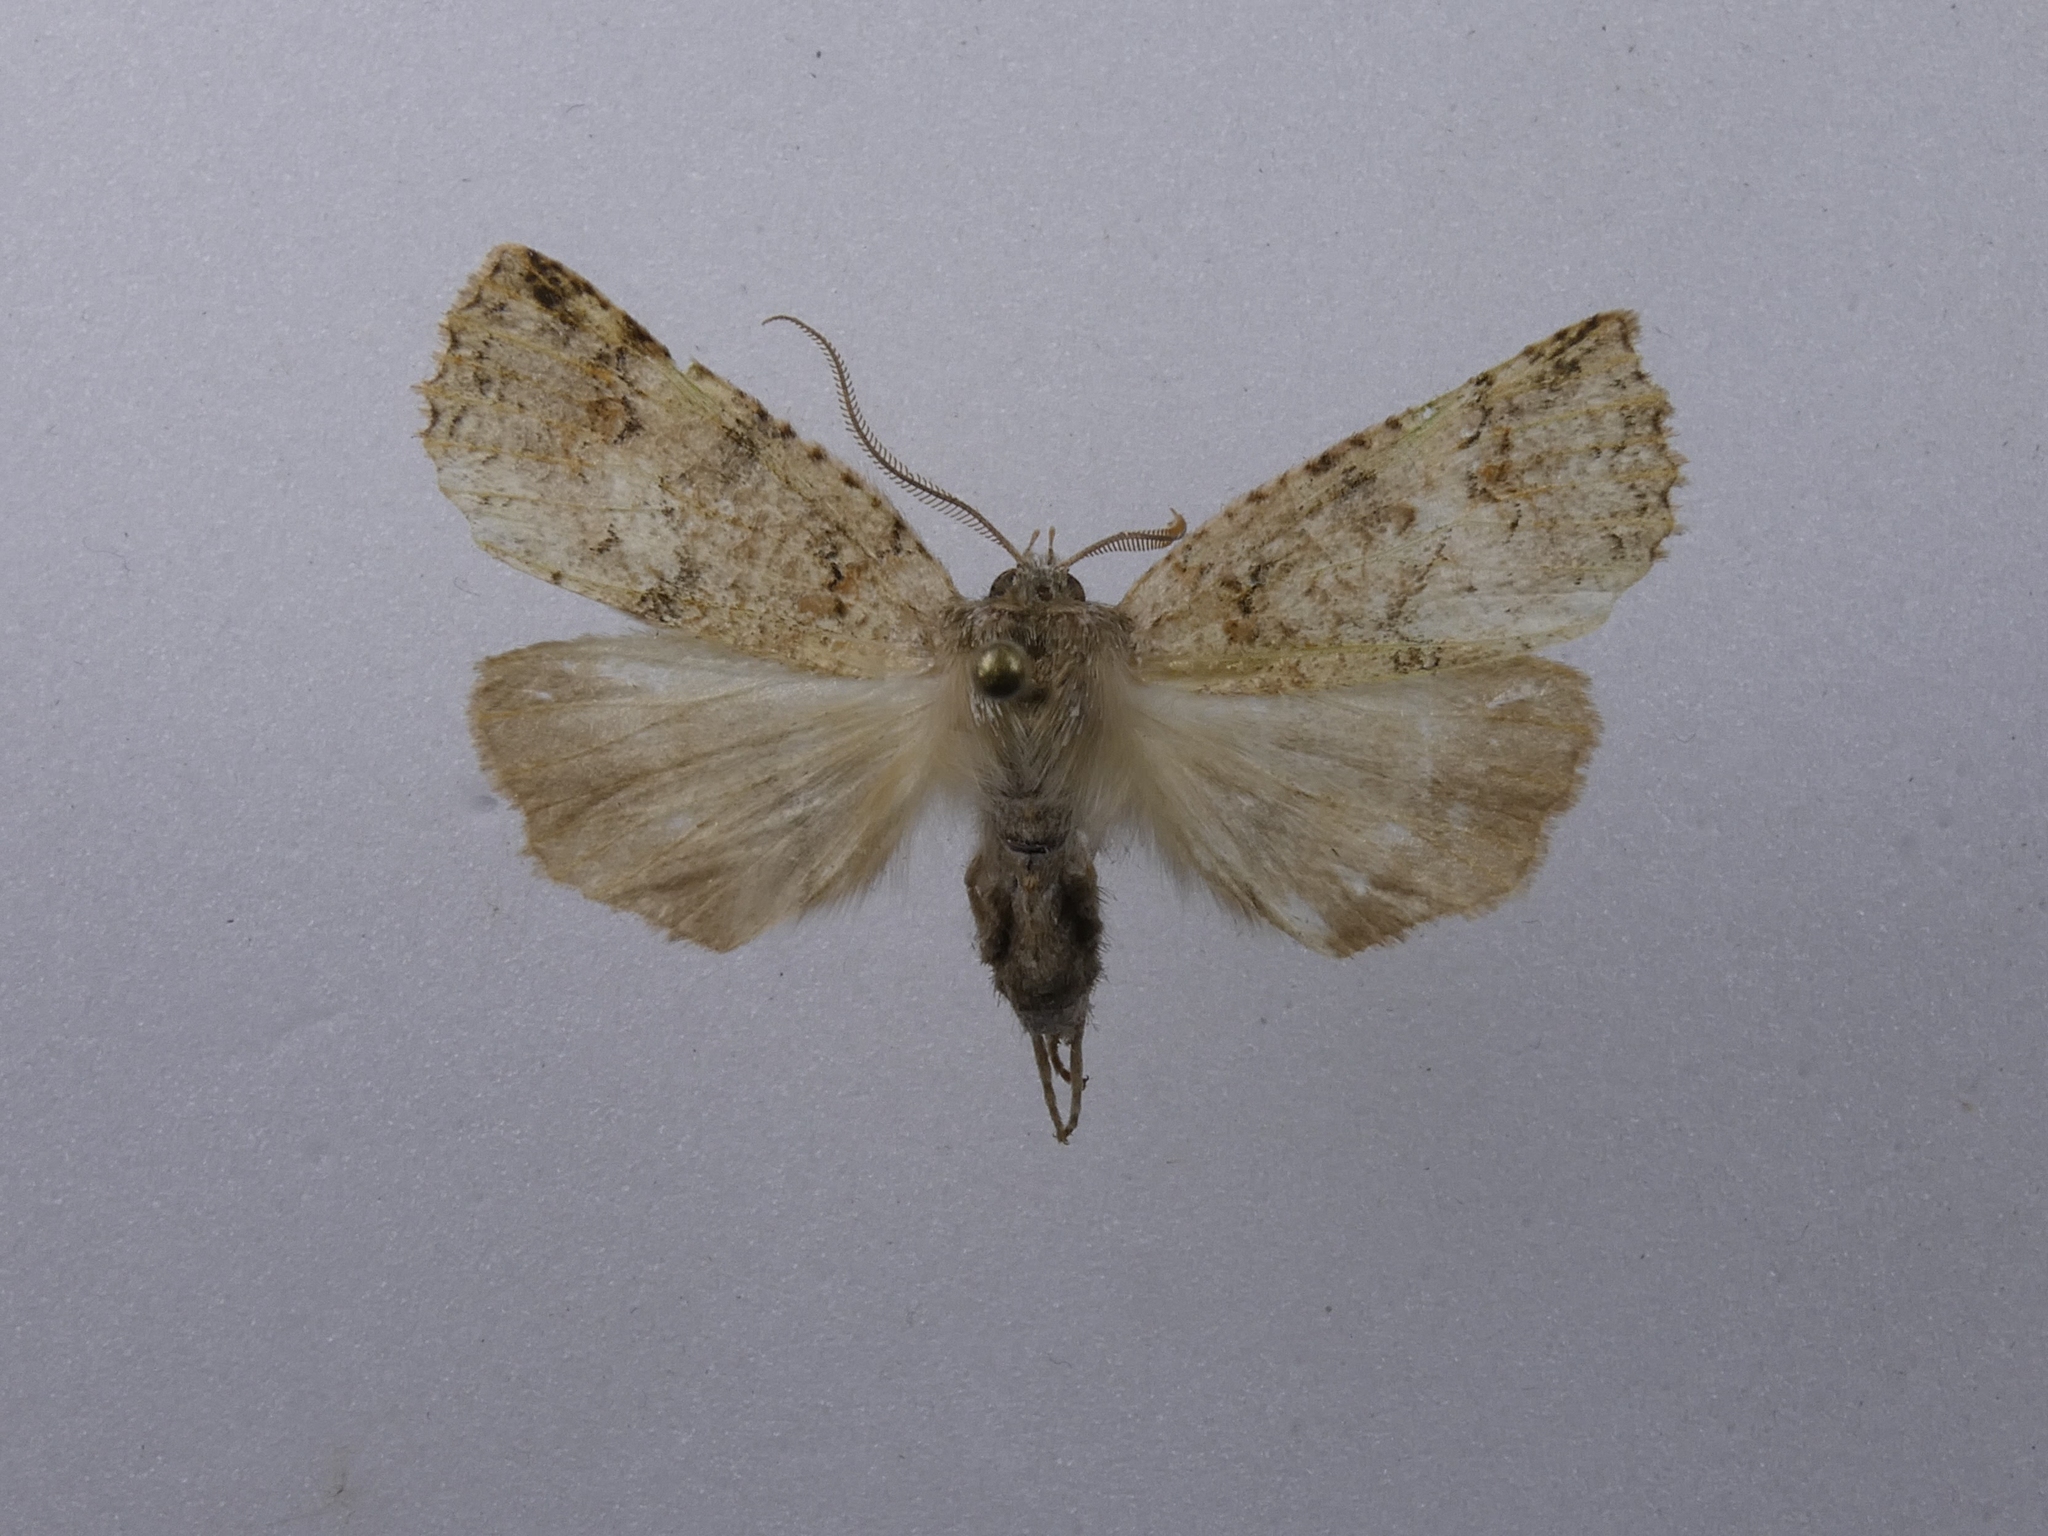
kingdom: Animalia
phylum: Arthropoda
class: Insecta
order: Lepidoptera
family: Geometridae
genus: Declana
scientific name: Declana floccosa
